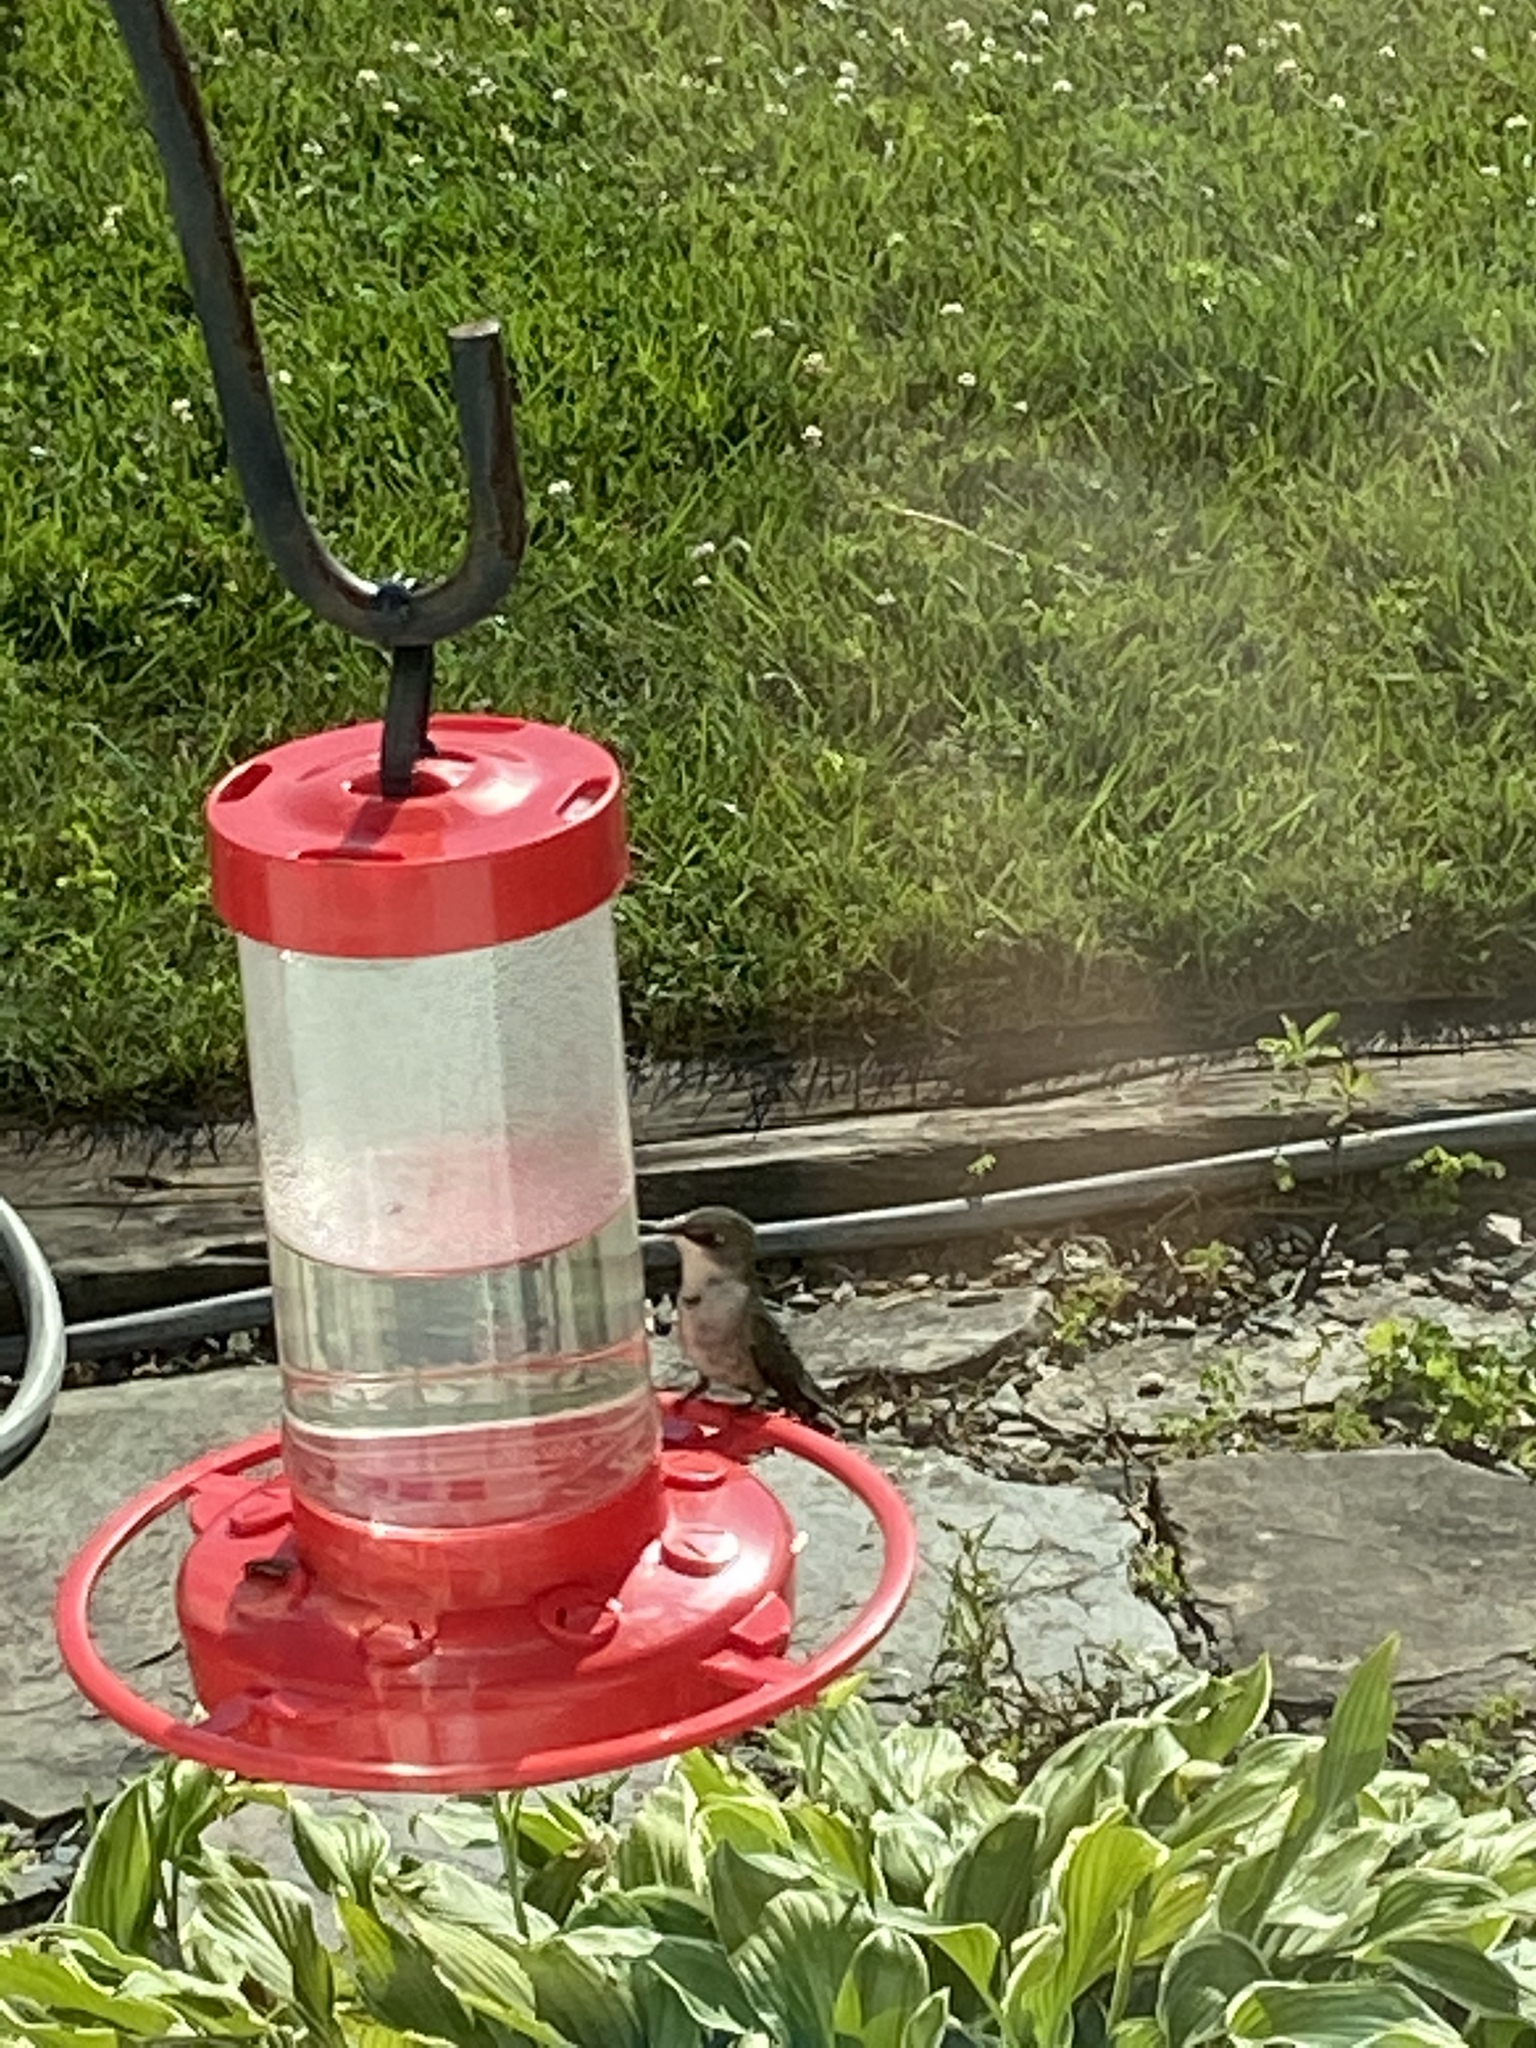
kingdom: Animalia
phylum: Chordata
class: Aves
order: Apodiformes
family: Trochilidae
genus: Archilochus
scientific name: Archilochus colubris
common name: Ruby-throated hummingbird
